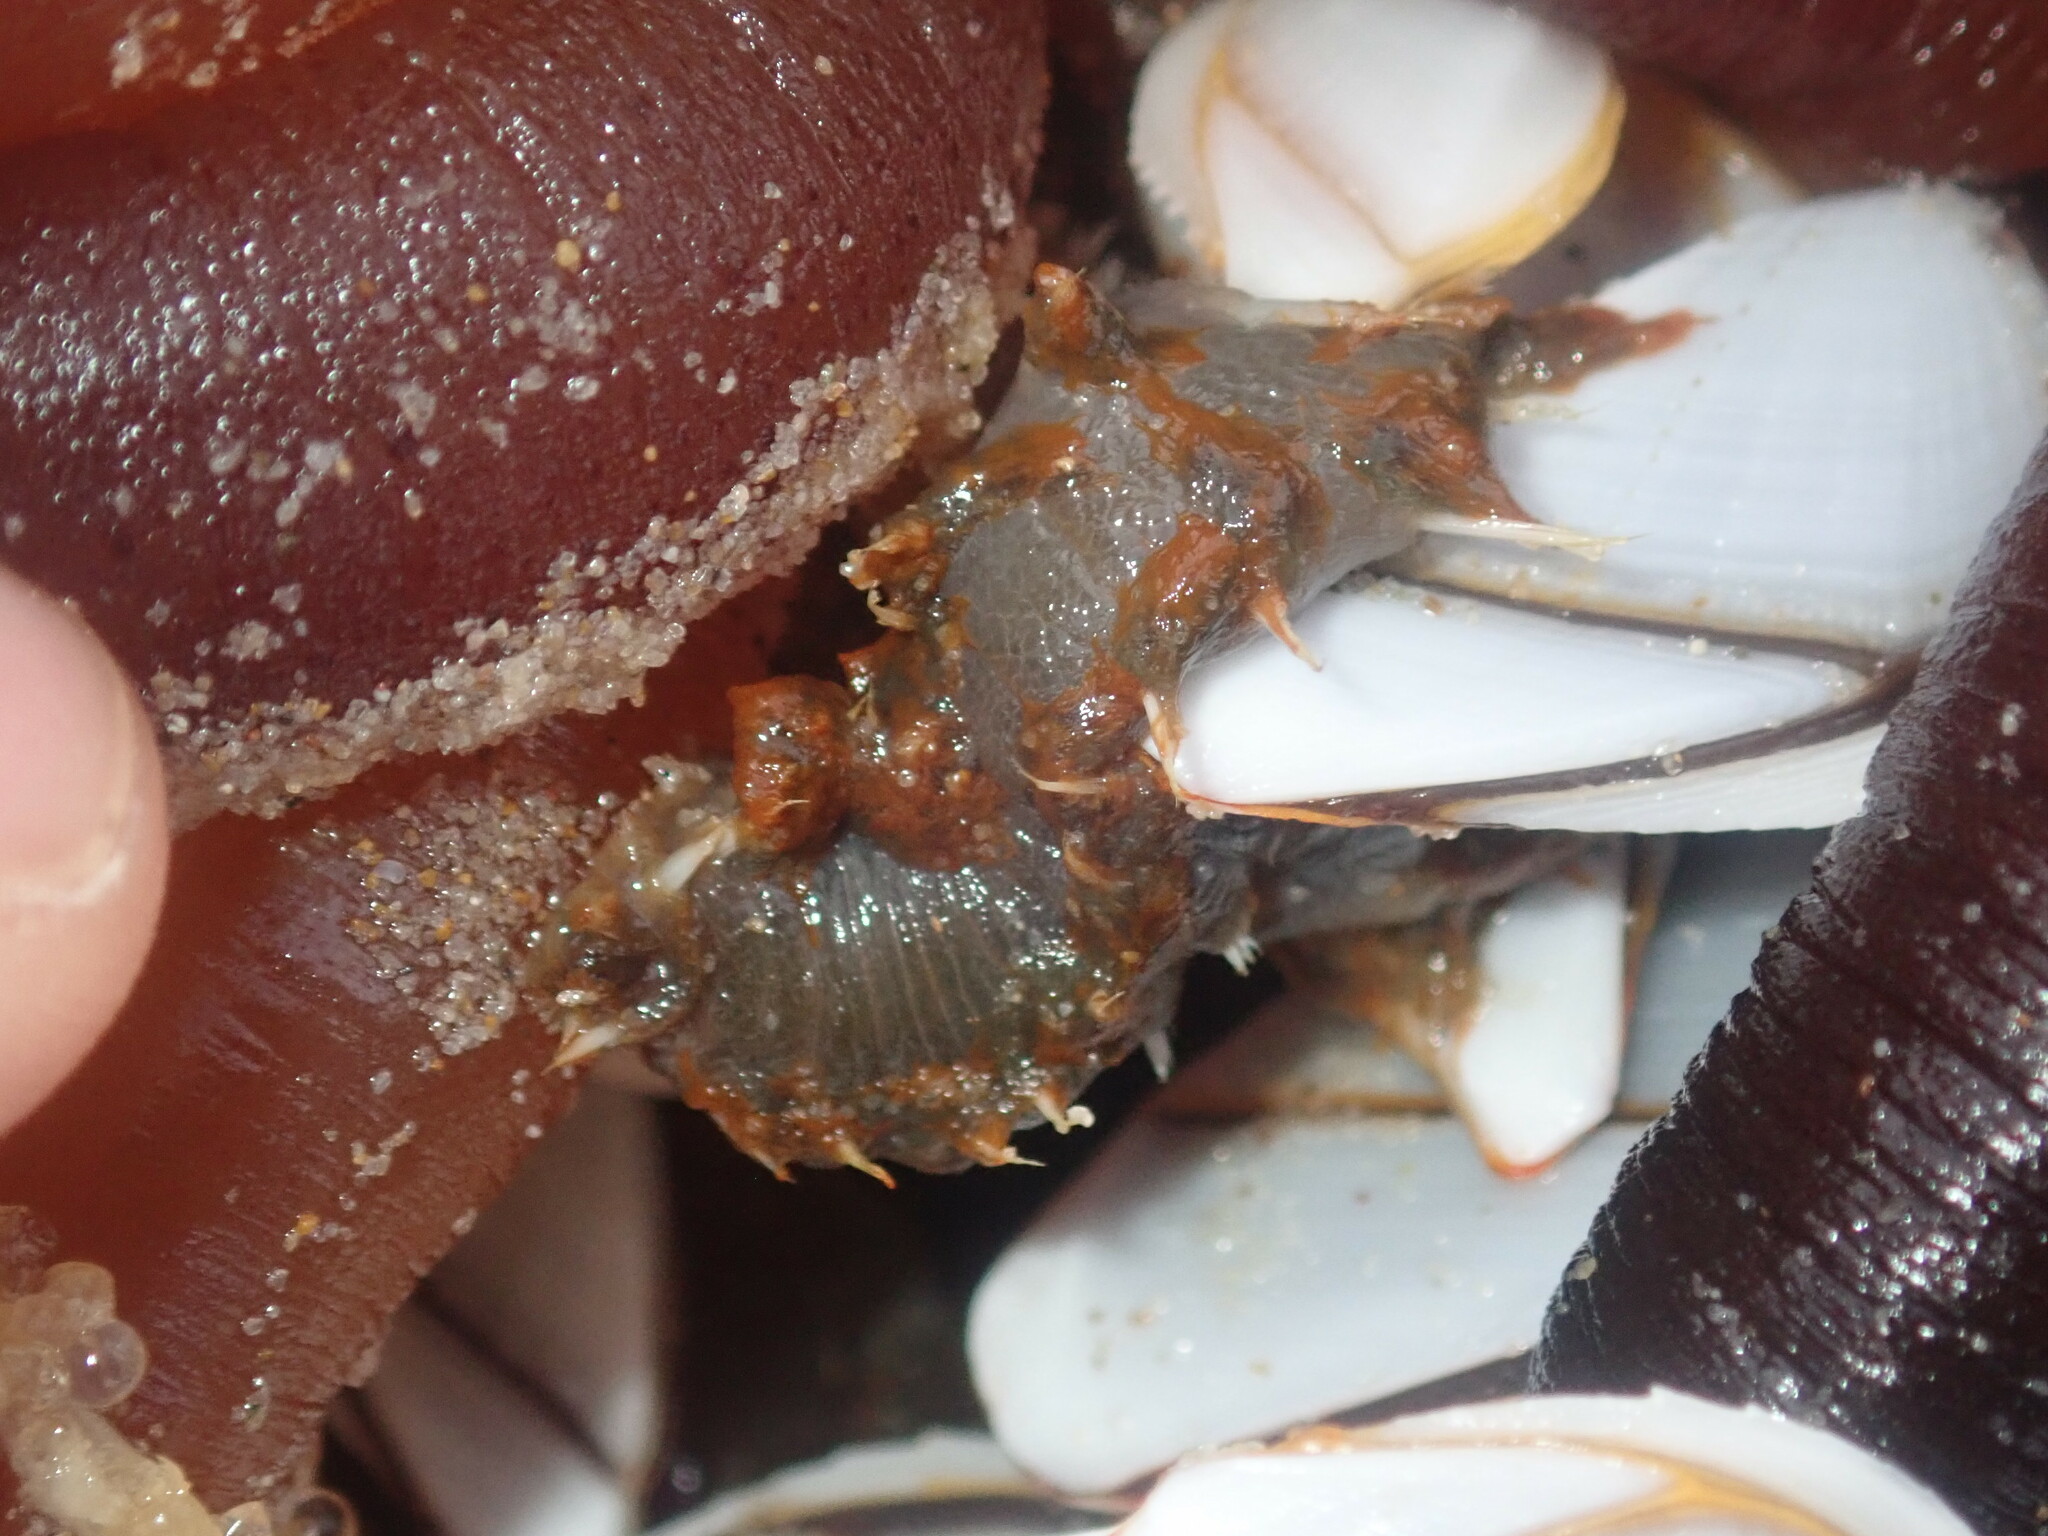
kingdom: Animalia
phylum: Annelida
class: Polychaeta
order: Amphinomida
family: Amphinomidae
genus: Amphinome
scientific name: Amphinome rostrata
